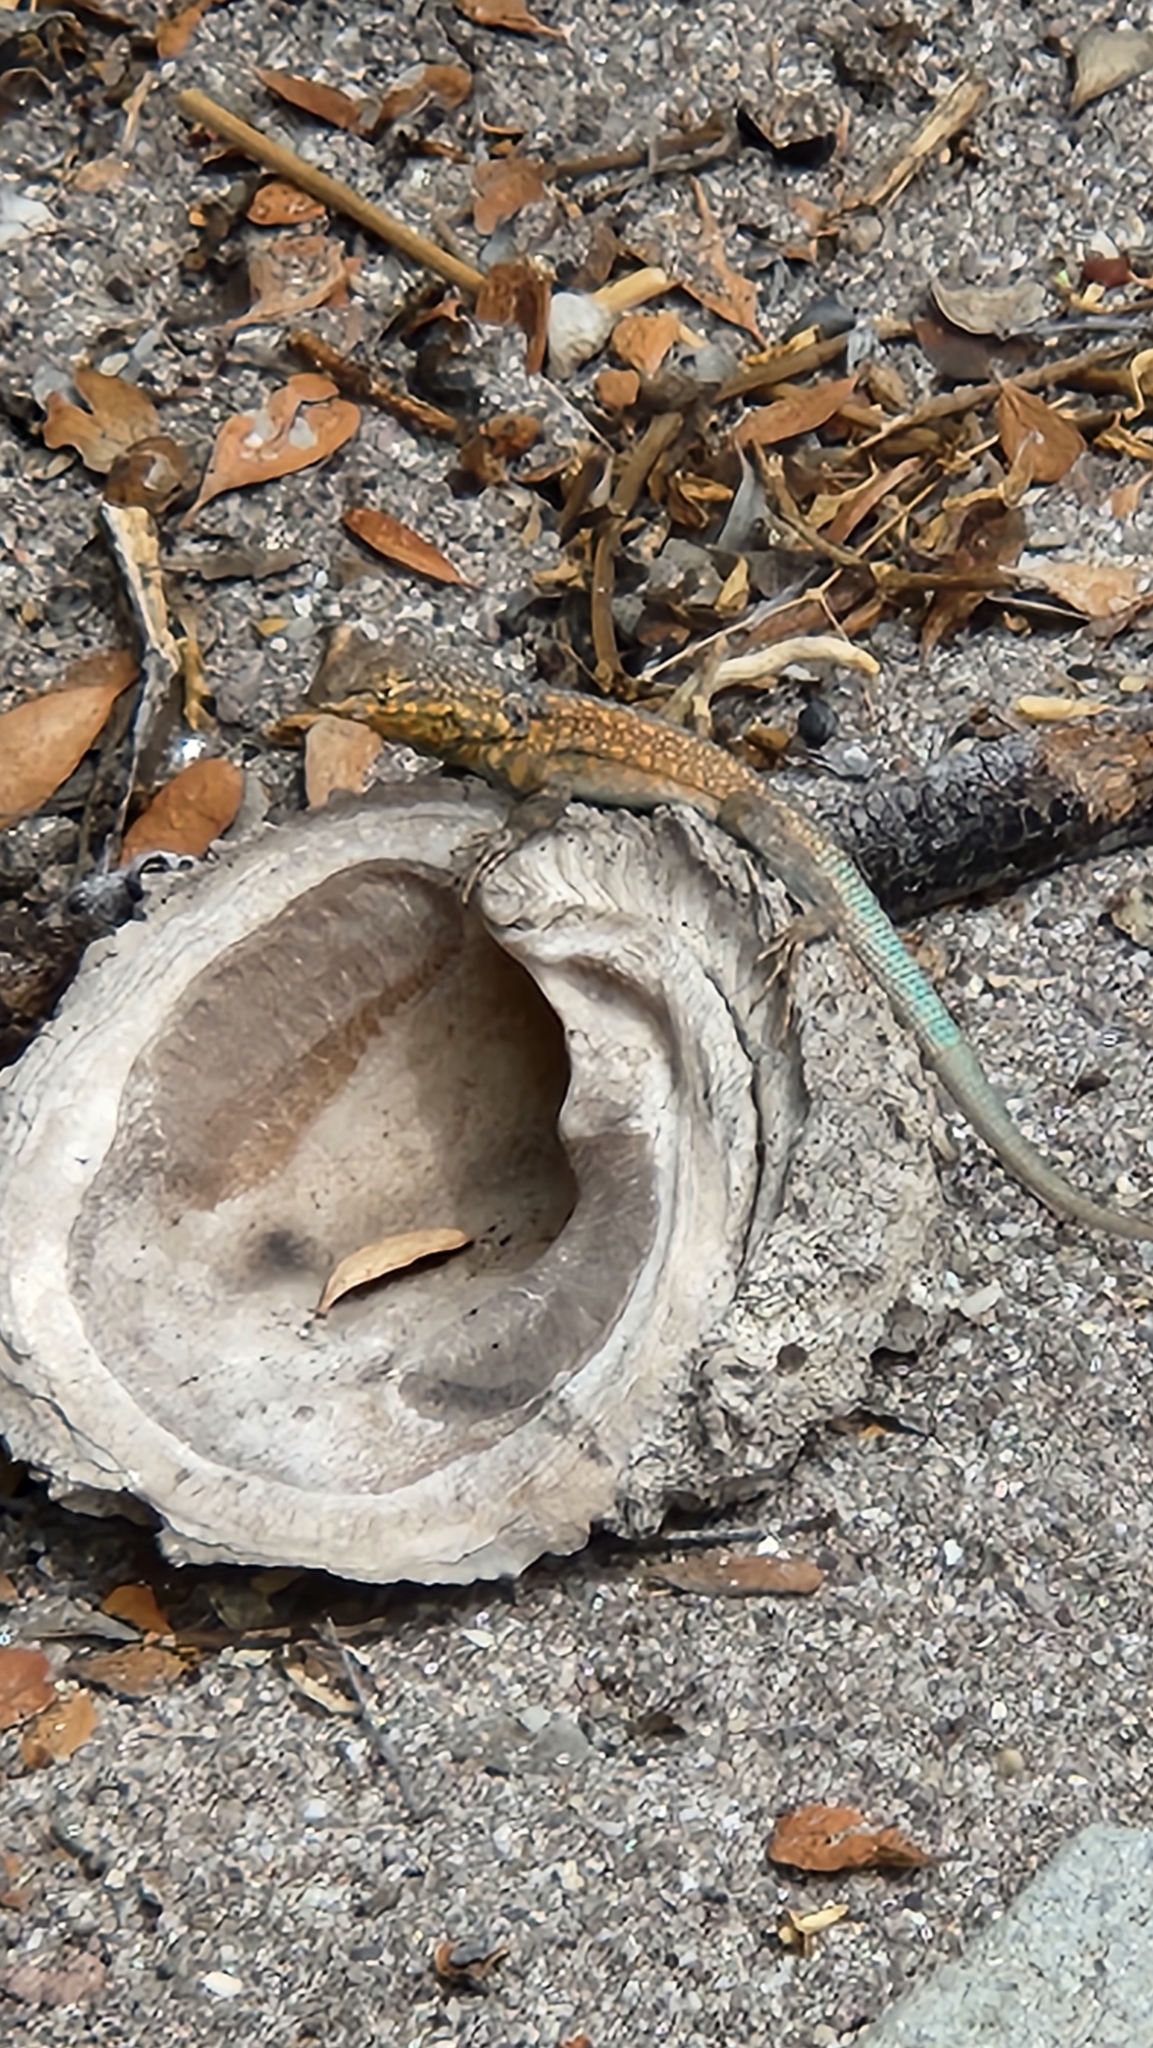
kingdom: Animalia
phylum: Chordata
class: Squamata
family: Phrynosomatidae
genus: Uta
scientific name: Uta stansburiana
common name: Side-blotched lizard
